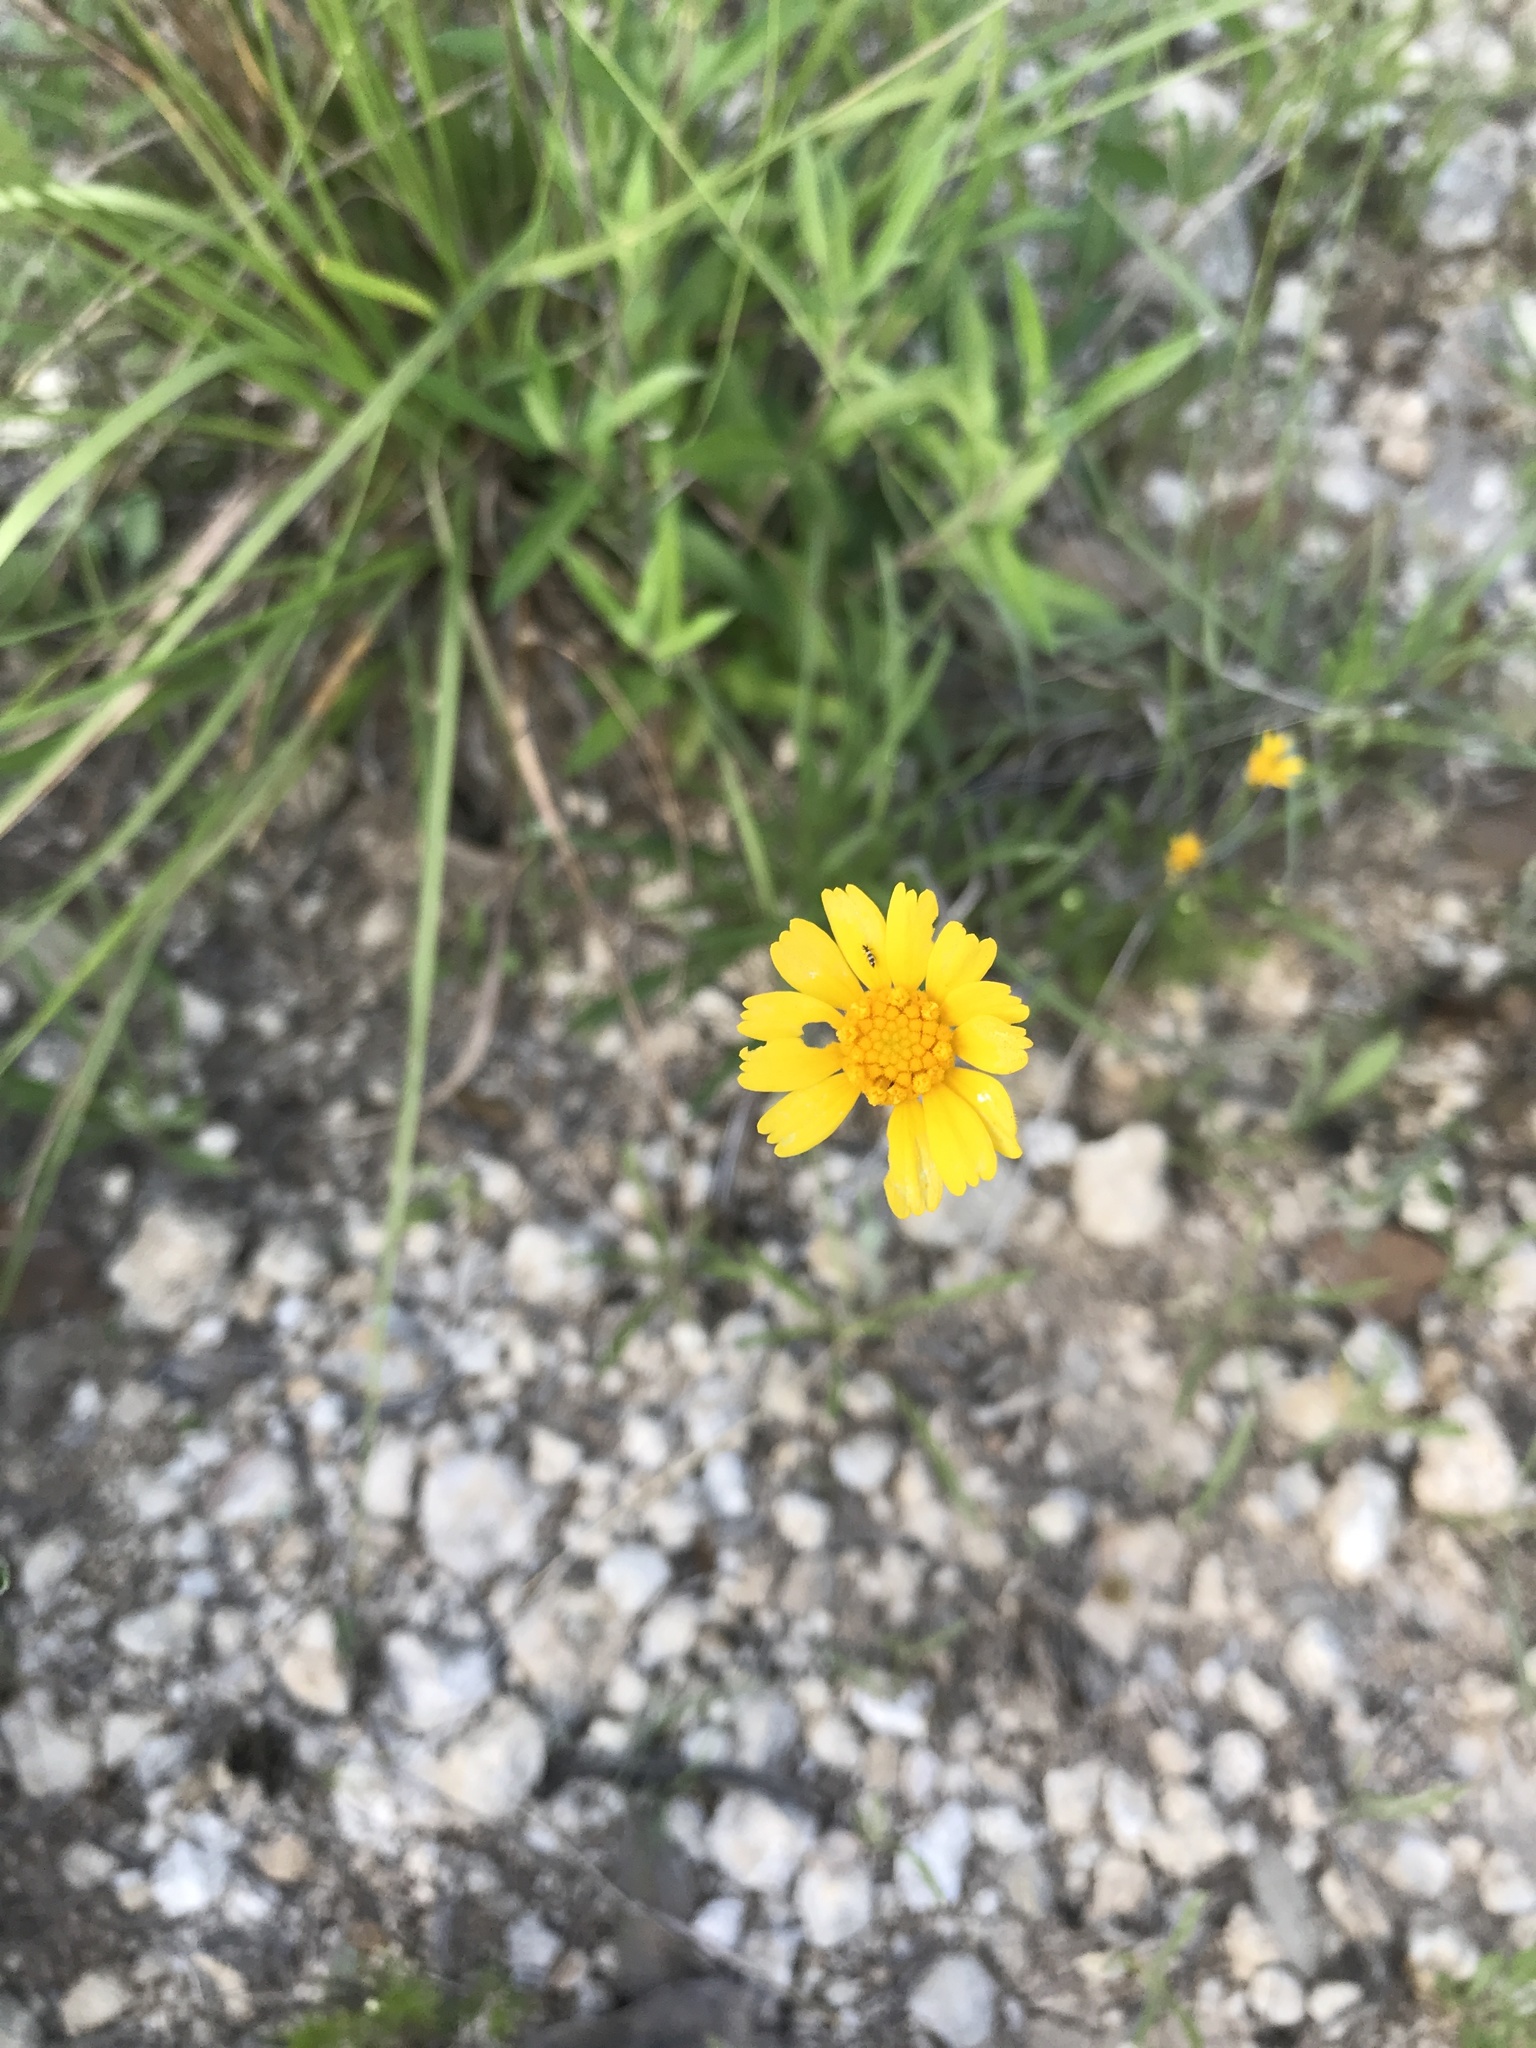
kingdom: Plantae
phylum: Tracheophyta
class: Magnoliopsida
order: Asterales
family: Asteraceae
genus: Tetraneuris
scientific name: Tetraneuris linearifolia
